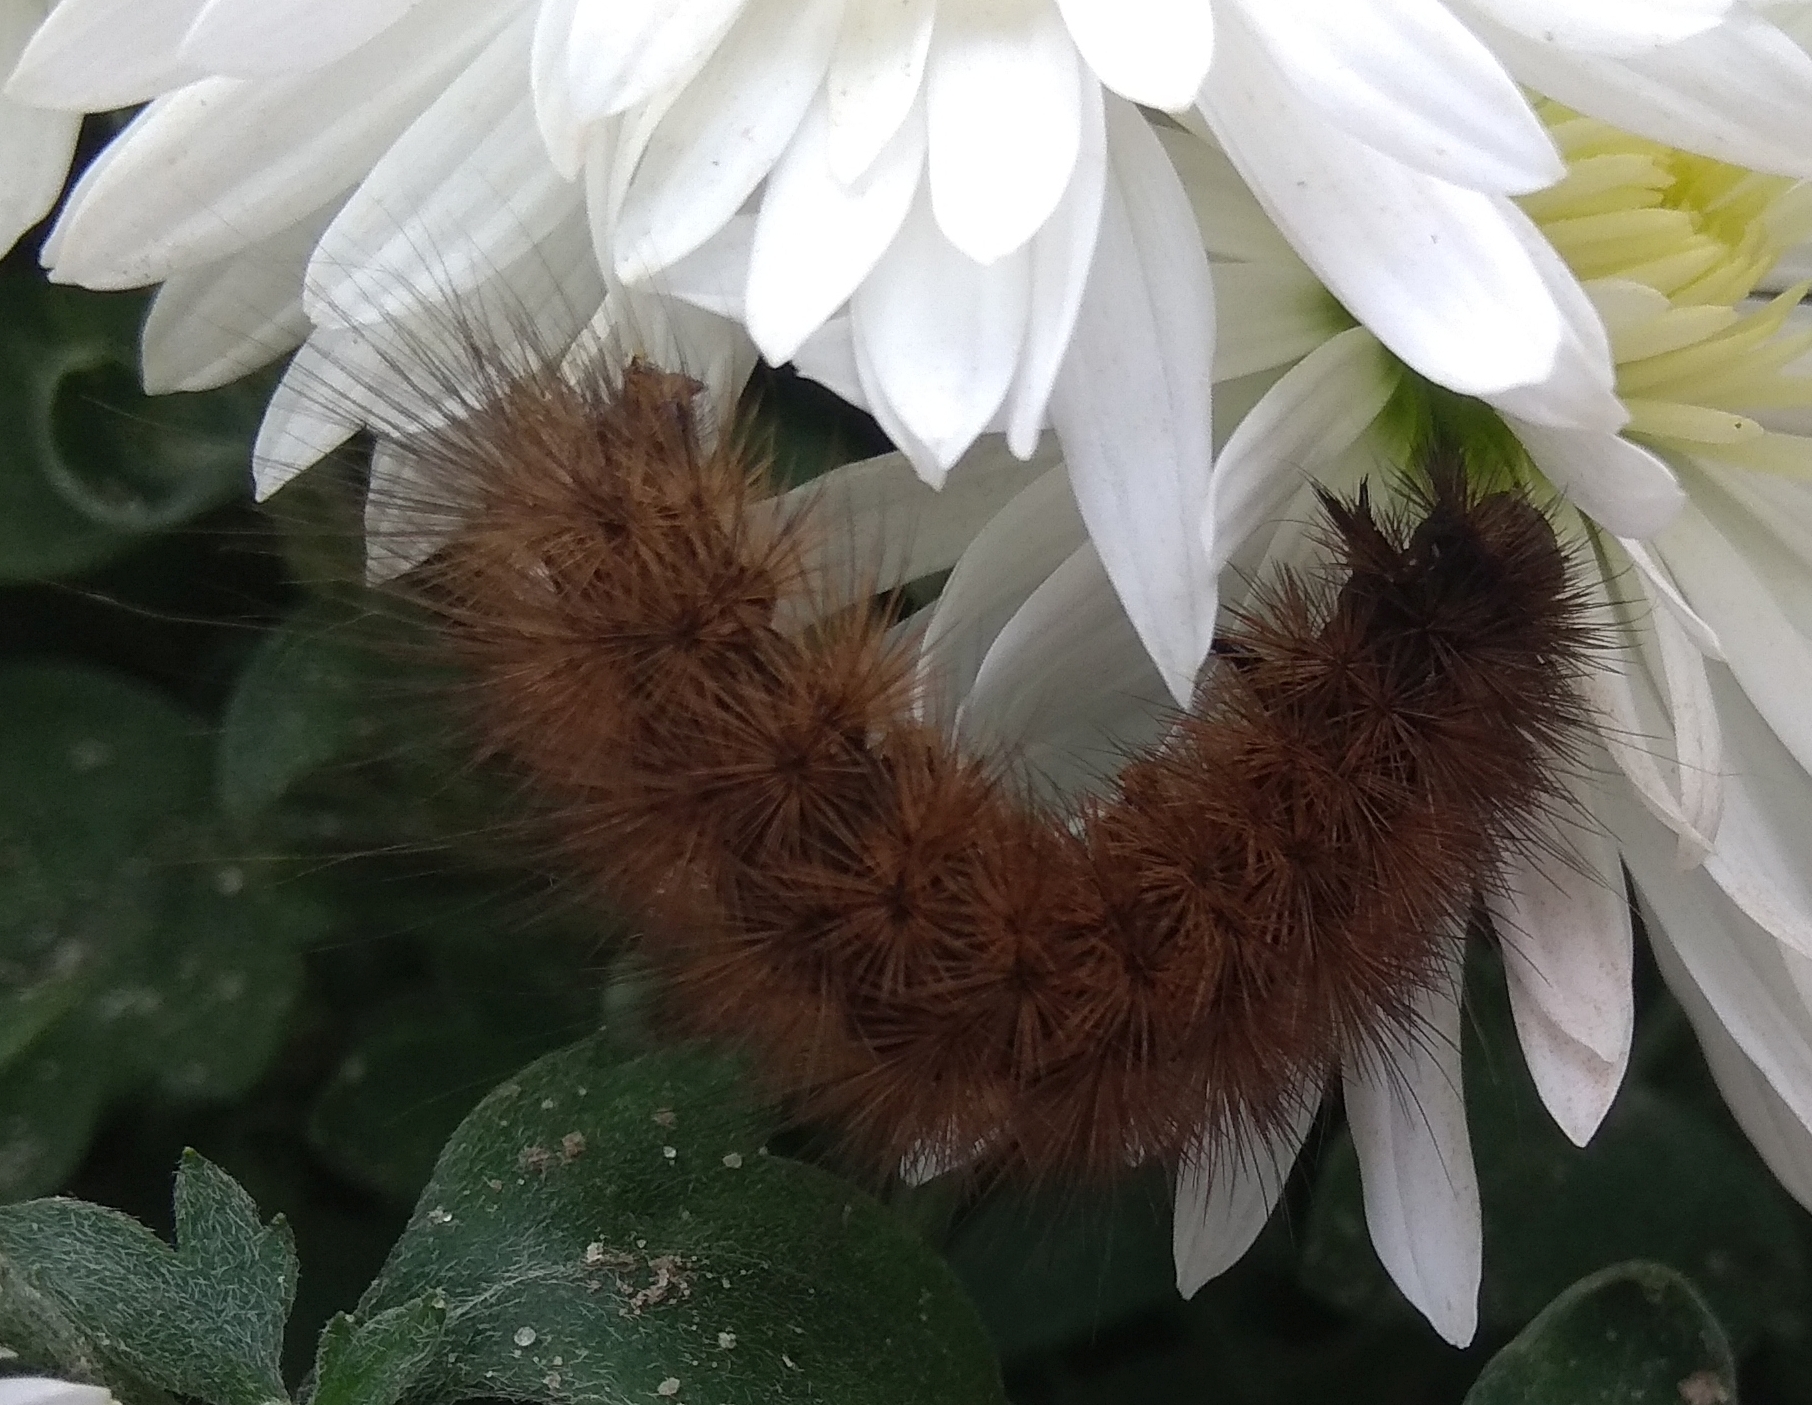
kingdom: Animalia
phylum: Arthropoda
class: Insecta
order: Lepidoptera
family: Erebidae
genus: Phragmatobia
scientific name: Phragmatobia fuliginosa
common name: Ruby tiger
